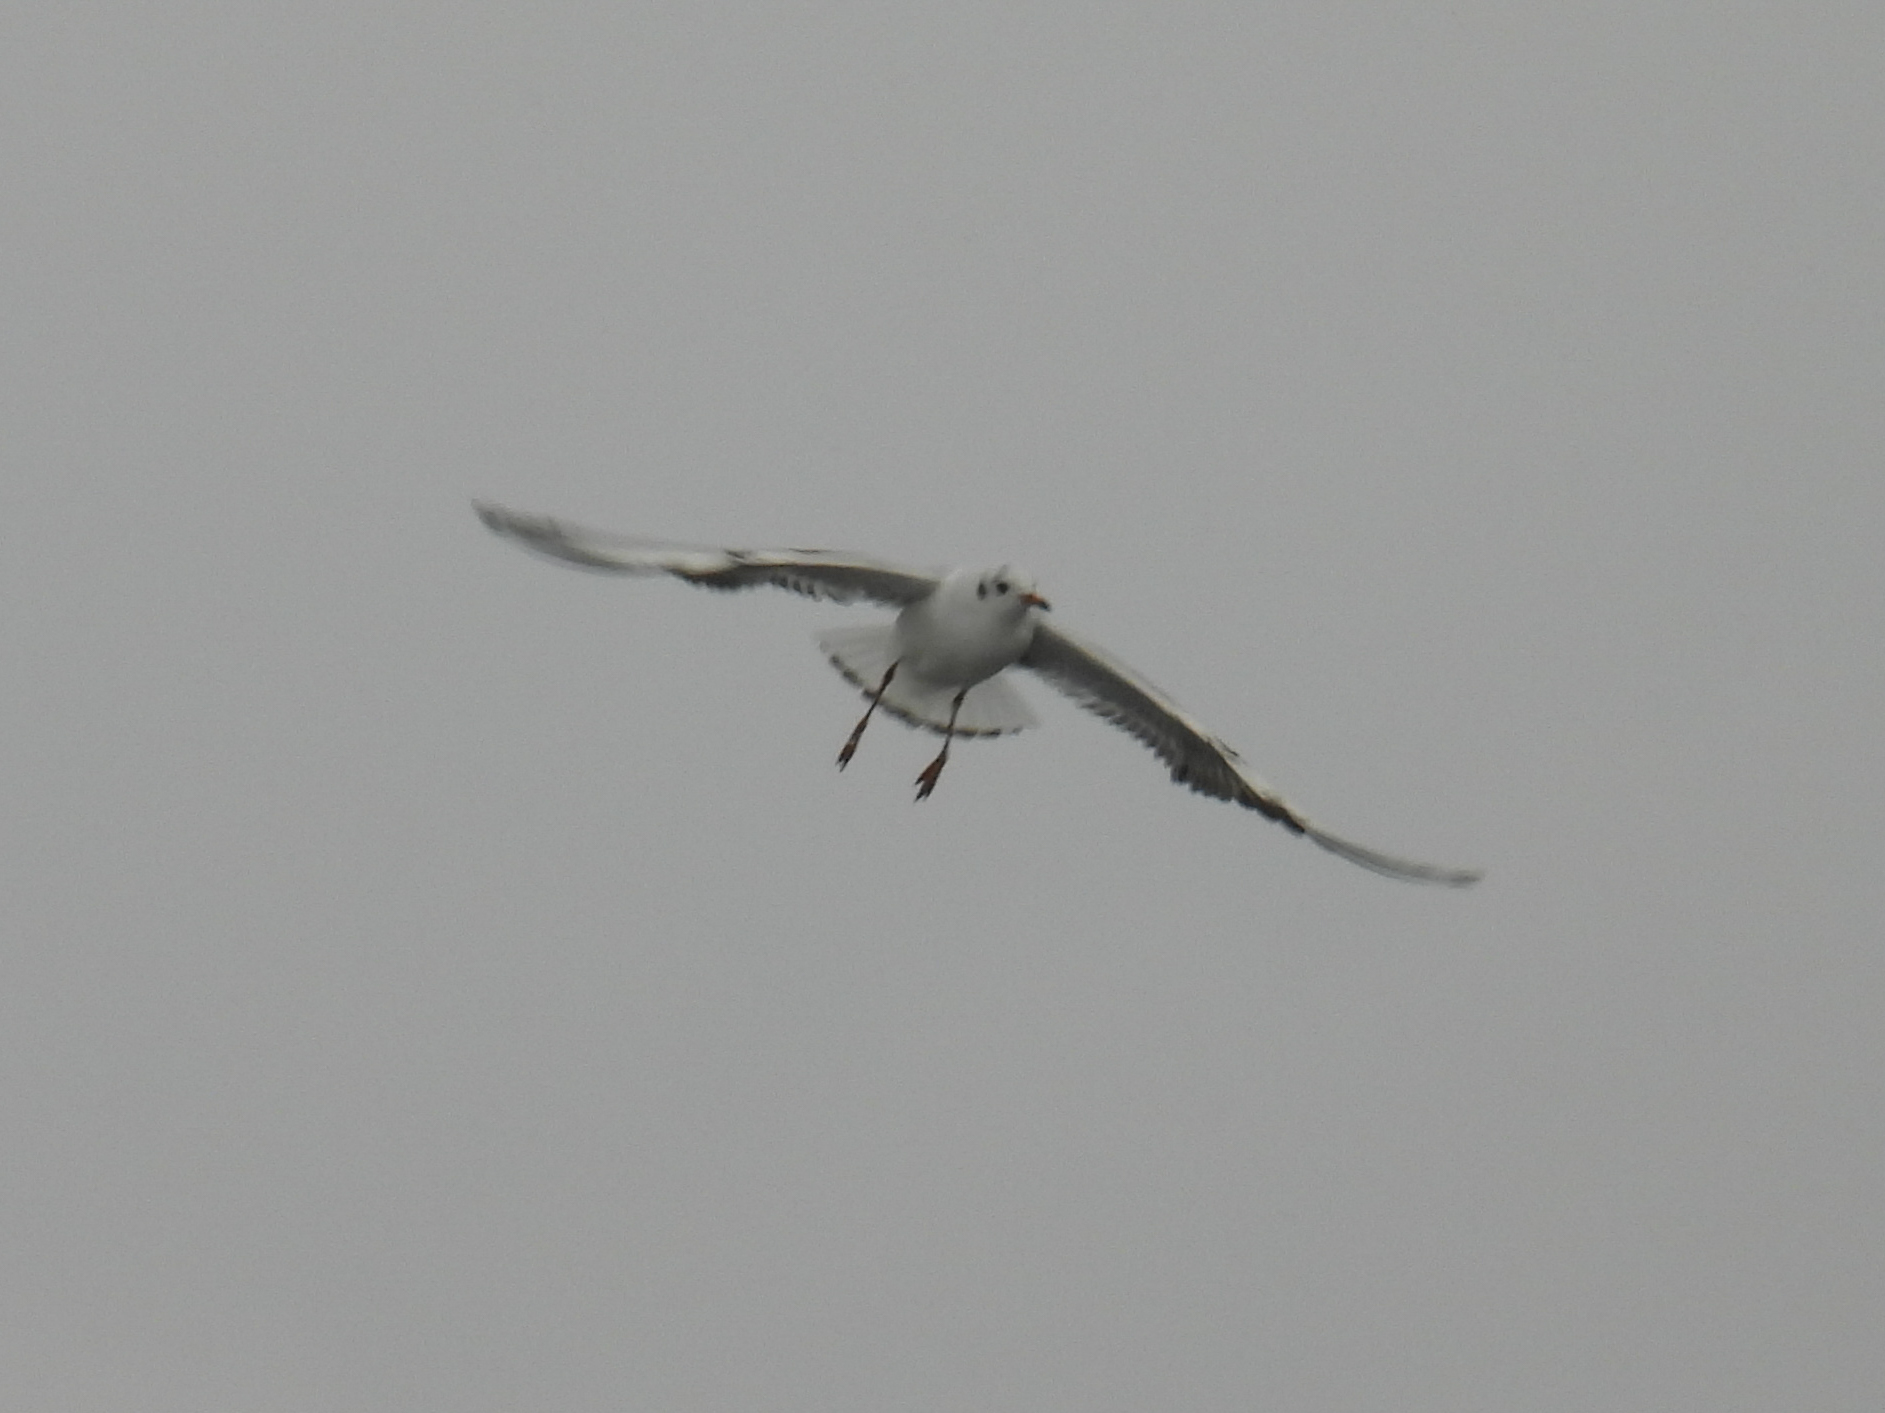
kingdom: Animalia
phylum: Chordata
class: Aves
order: Charadriiformes
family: Laridae
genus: Chroicocephalus
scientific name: Chroicocephalus ridibundus
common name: Black-headed gull
